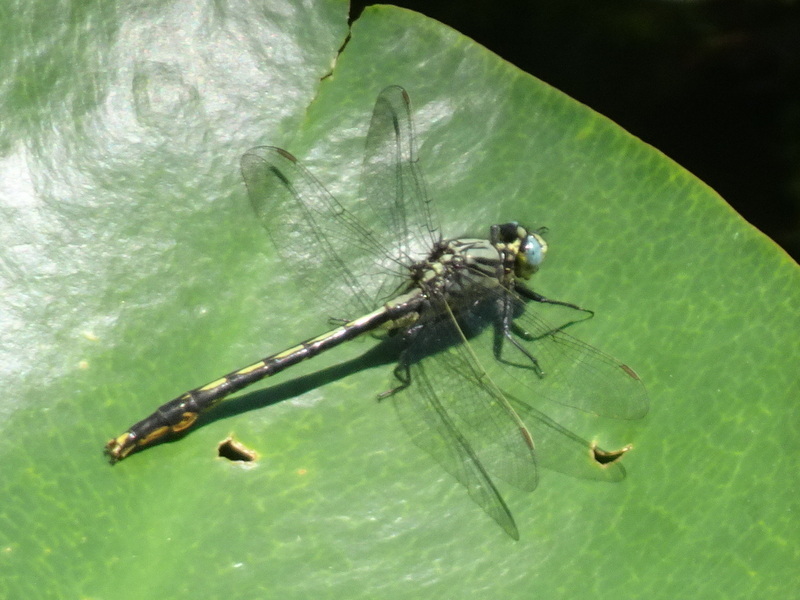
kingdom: Animalia
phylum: Arthropoda
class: Insecta
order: Odonata
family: Gomphidae
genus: Arigomphus
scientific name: Arigomphus furcifer
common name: Lilypad clubtail
